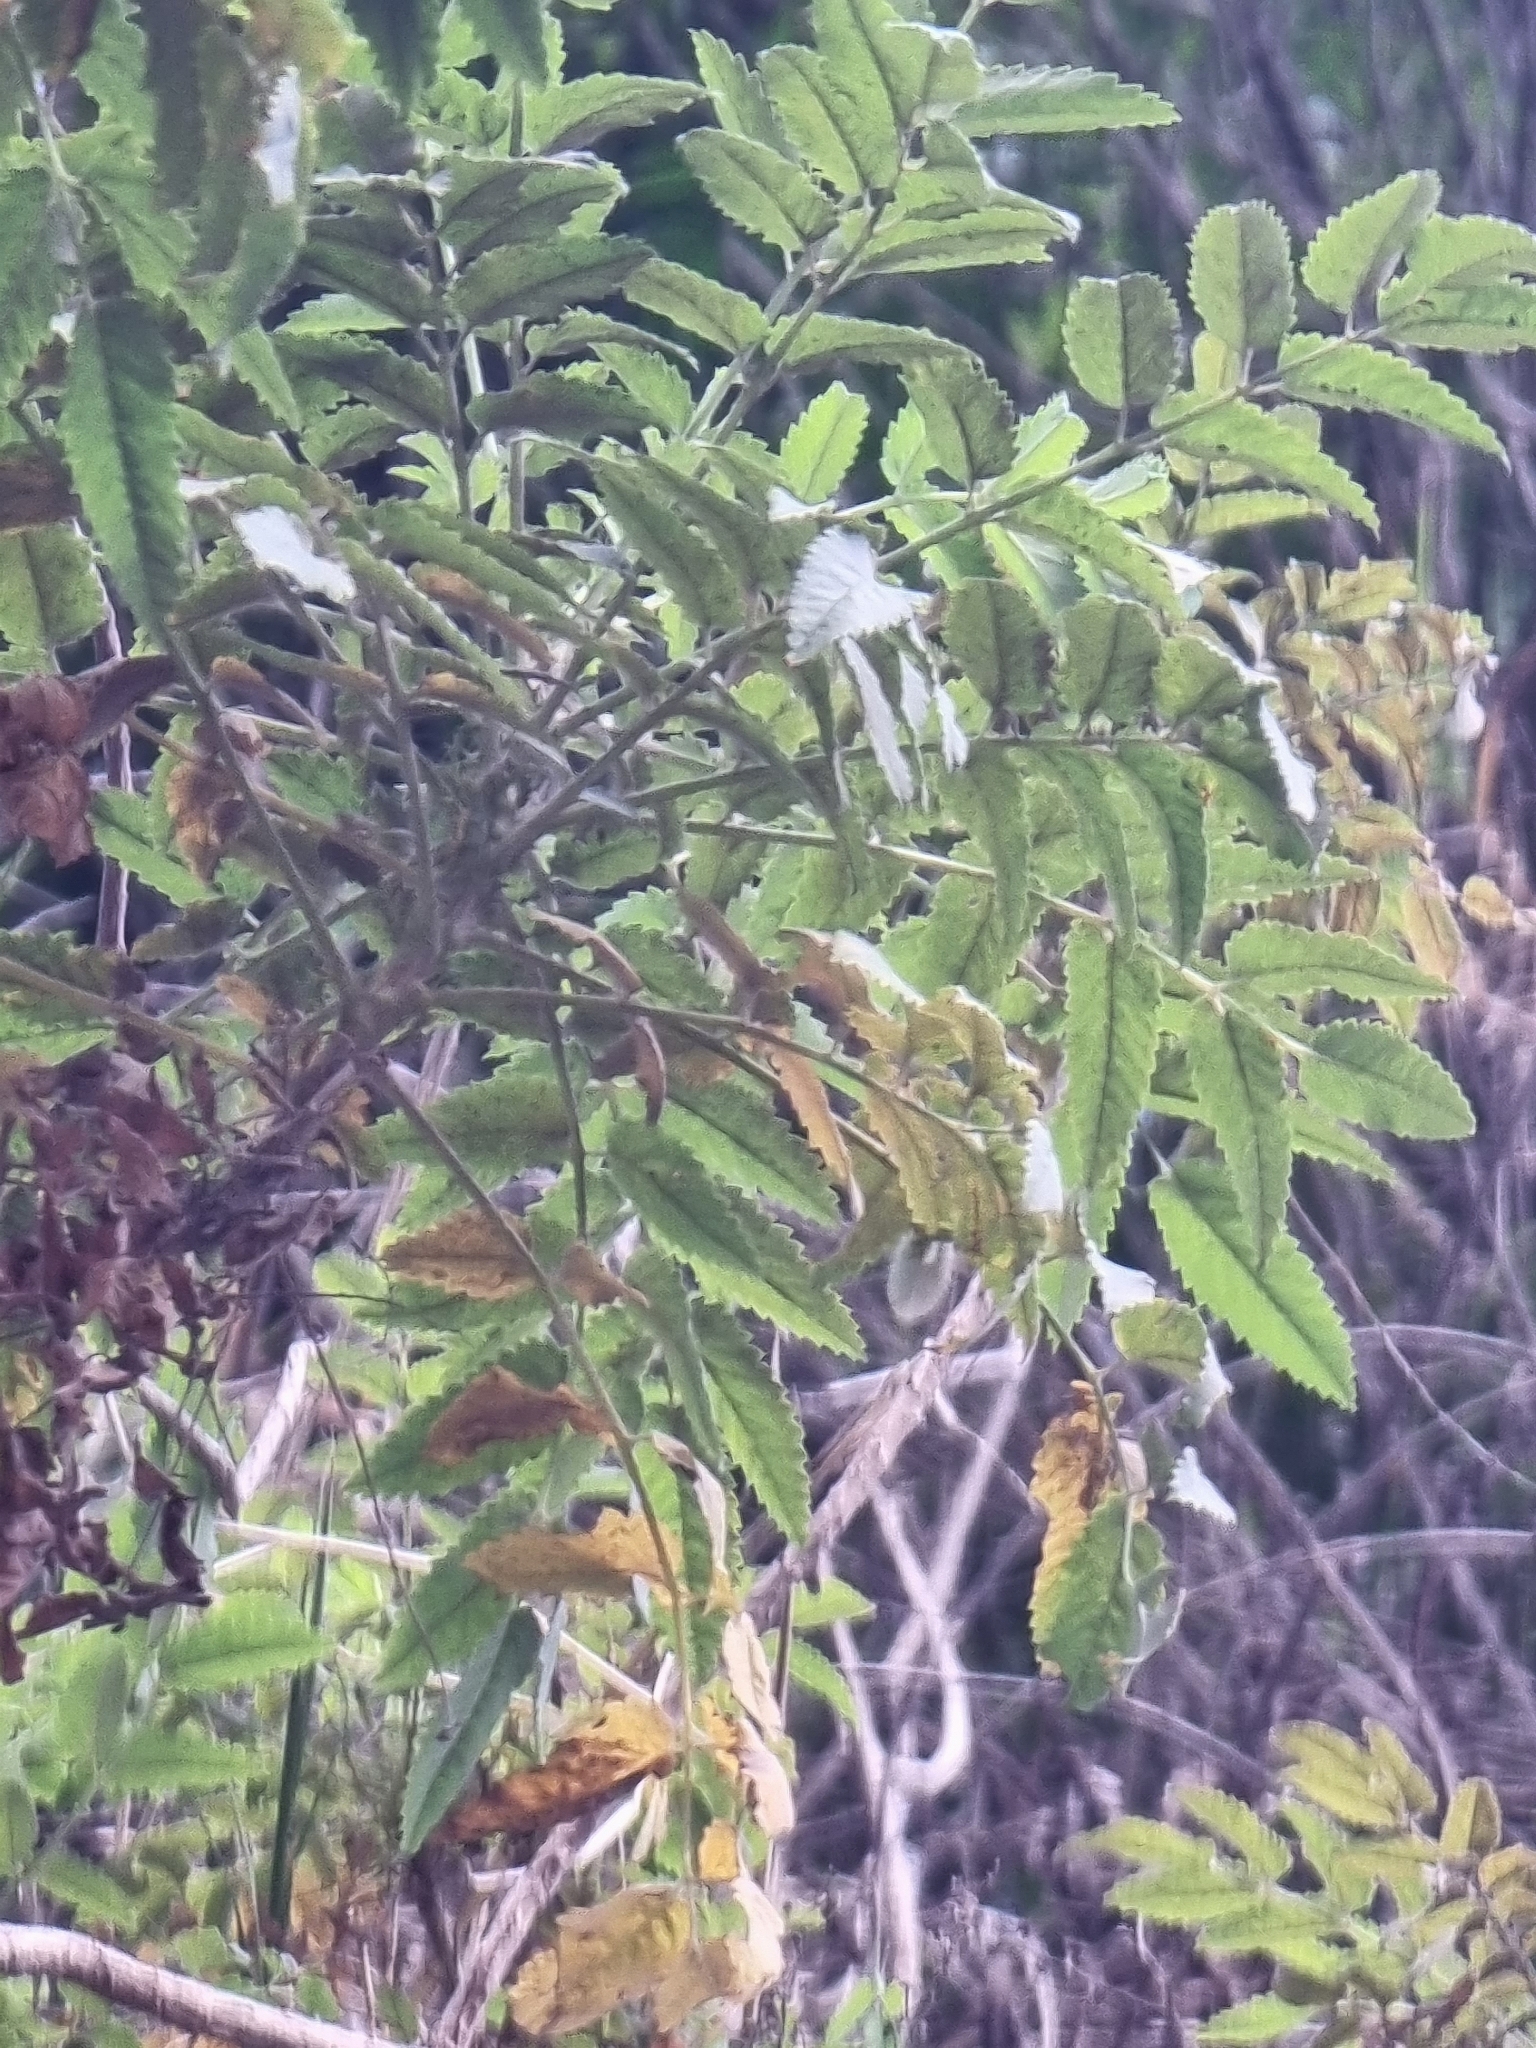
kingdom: Plantae
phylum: Tracheophyta
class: Magnoliopsida
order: Rosales
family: Rosaceae
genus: Marcetella
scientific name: Marcetella maderensis
